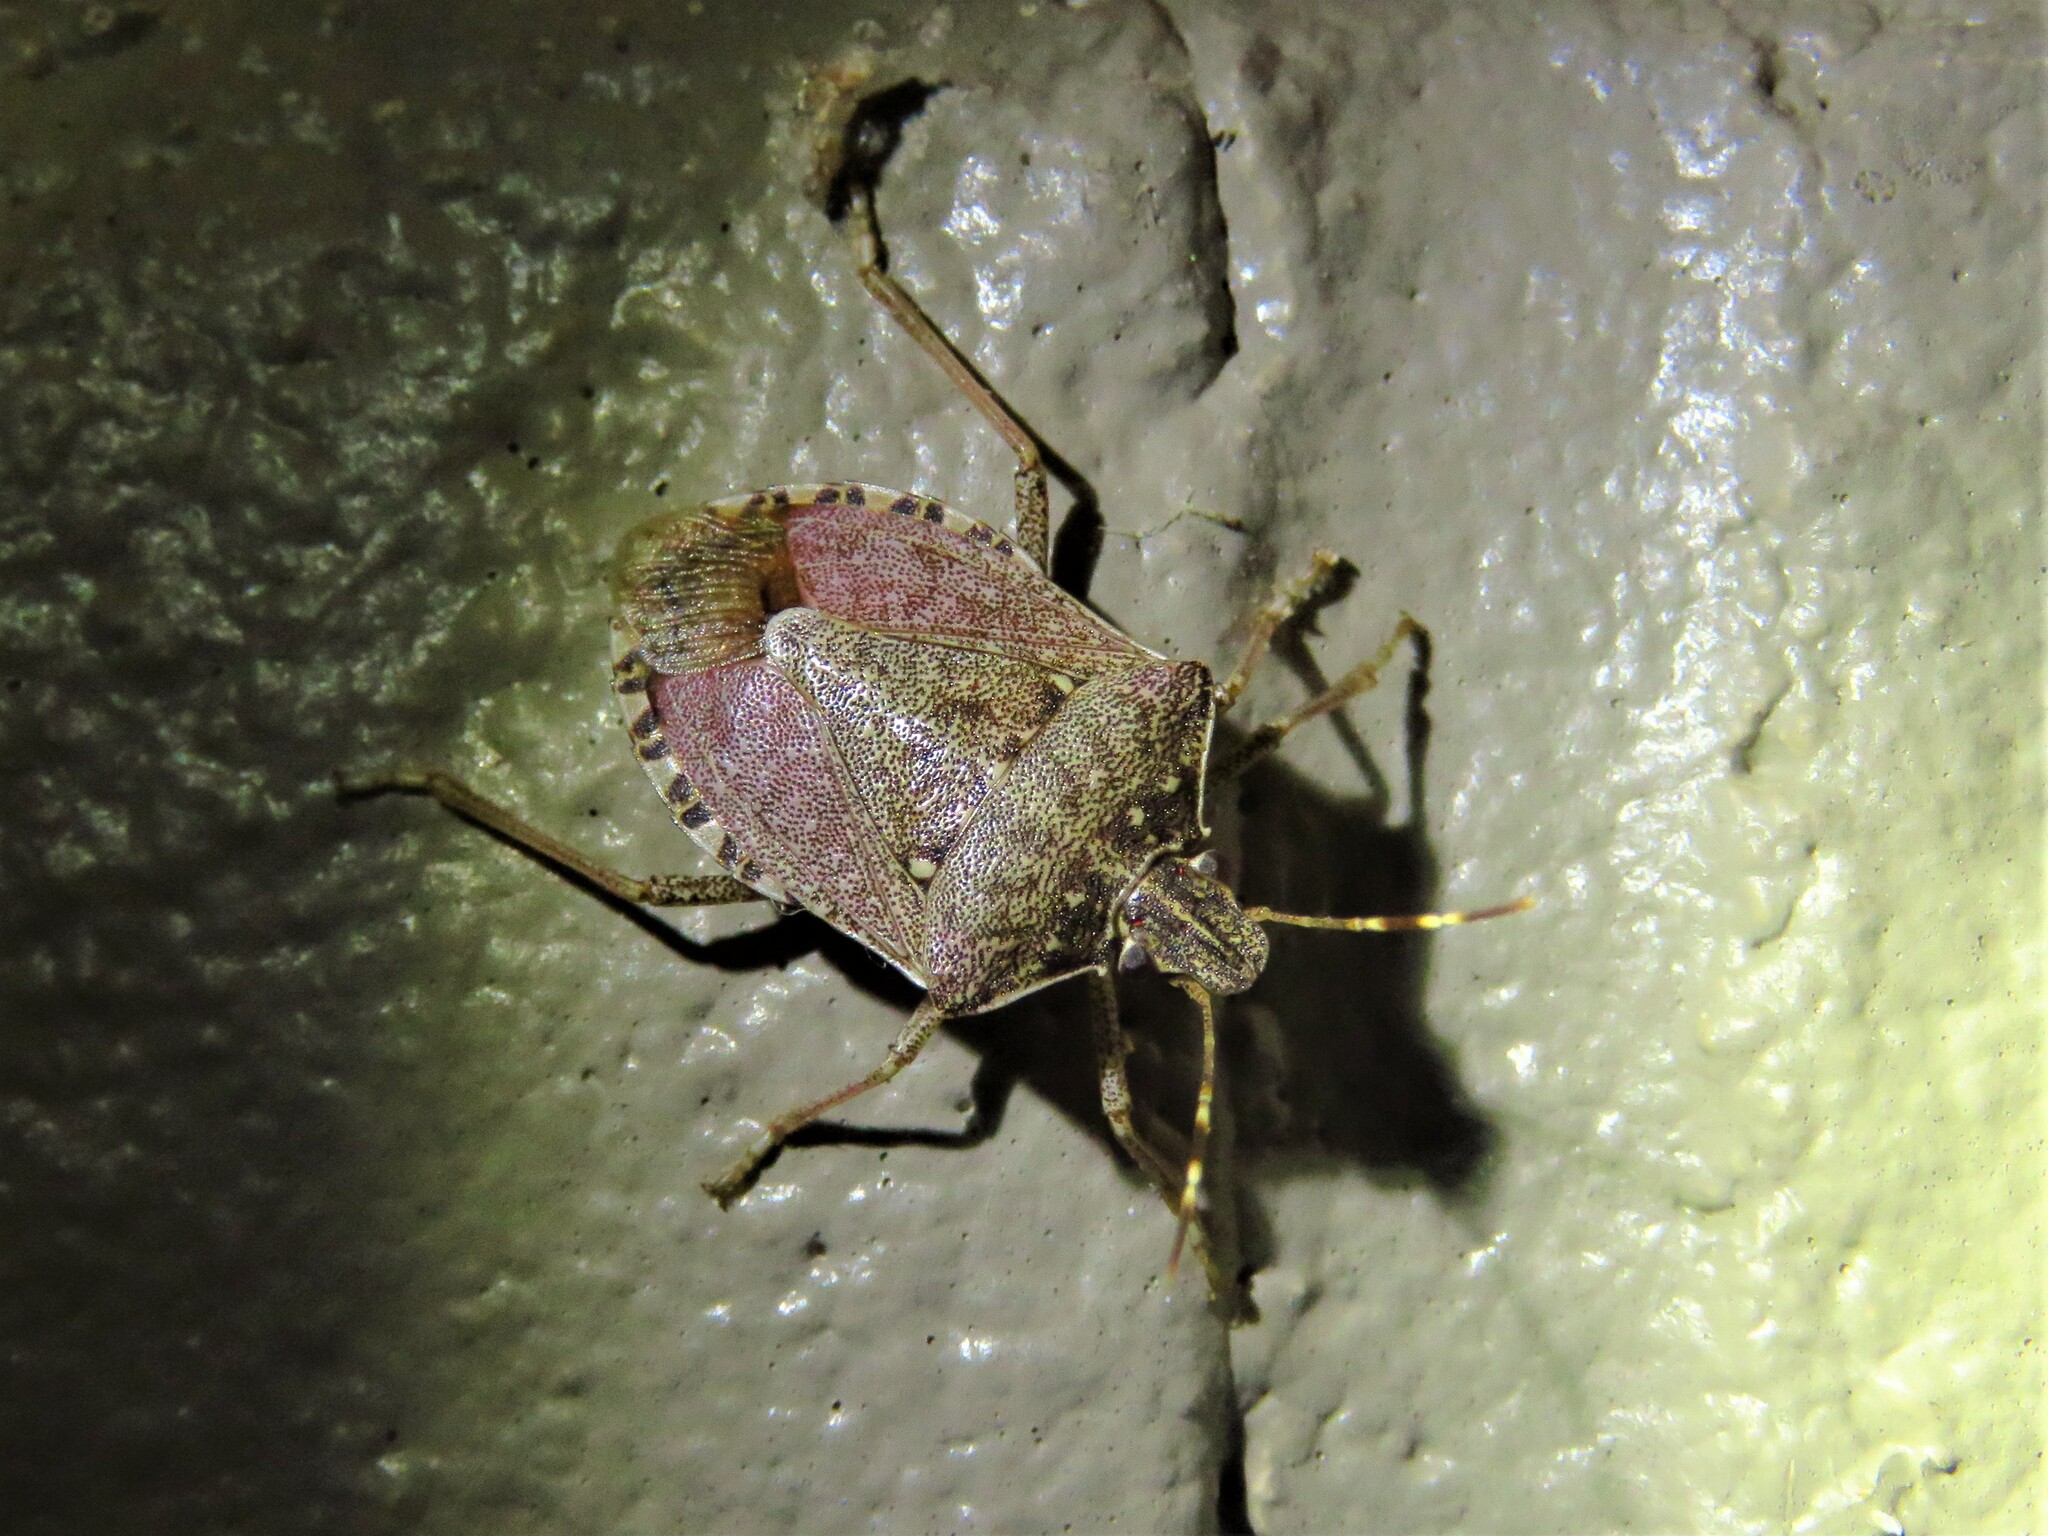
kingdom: Animalia
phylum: Arthropoda
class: Insecta
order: Hemiptera
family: Pentatomidae
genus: Halyomorpha
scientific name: Halyomorpha halys
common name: Brown marmorated stink bug
